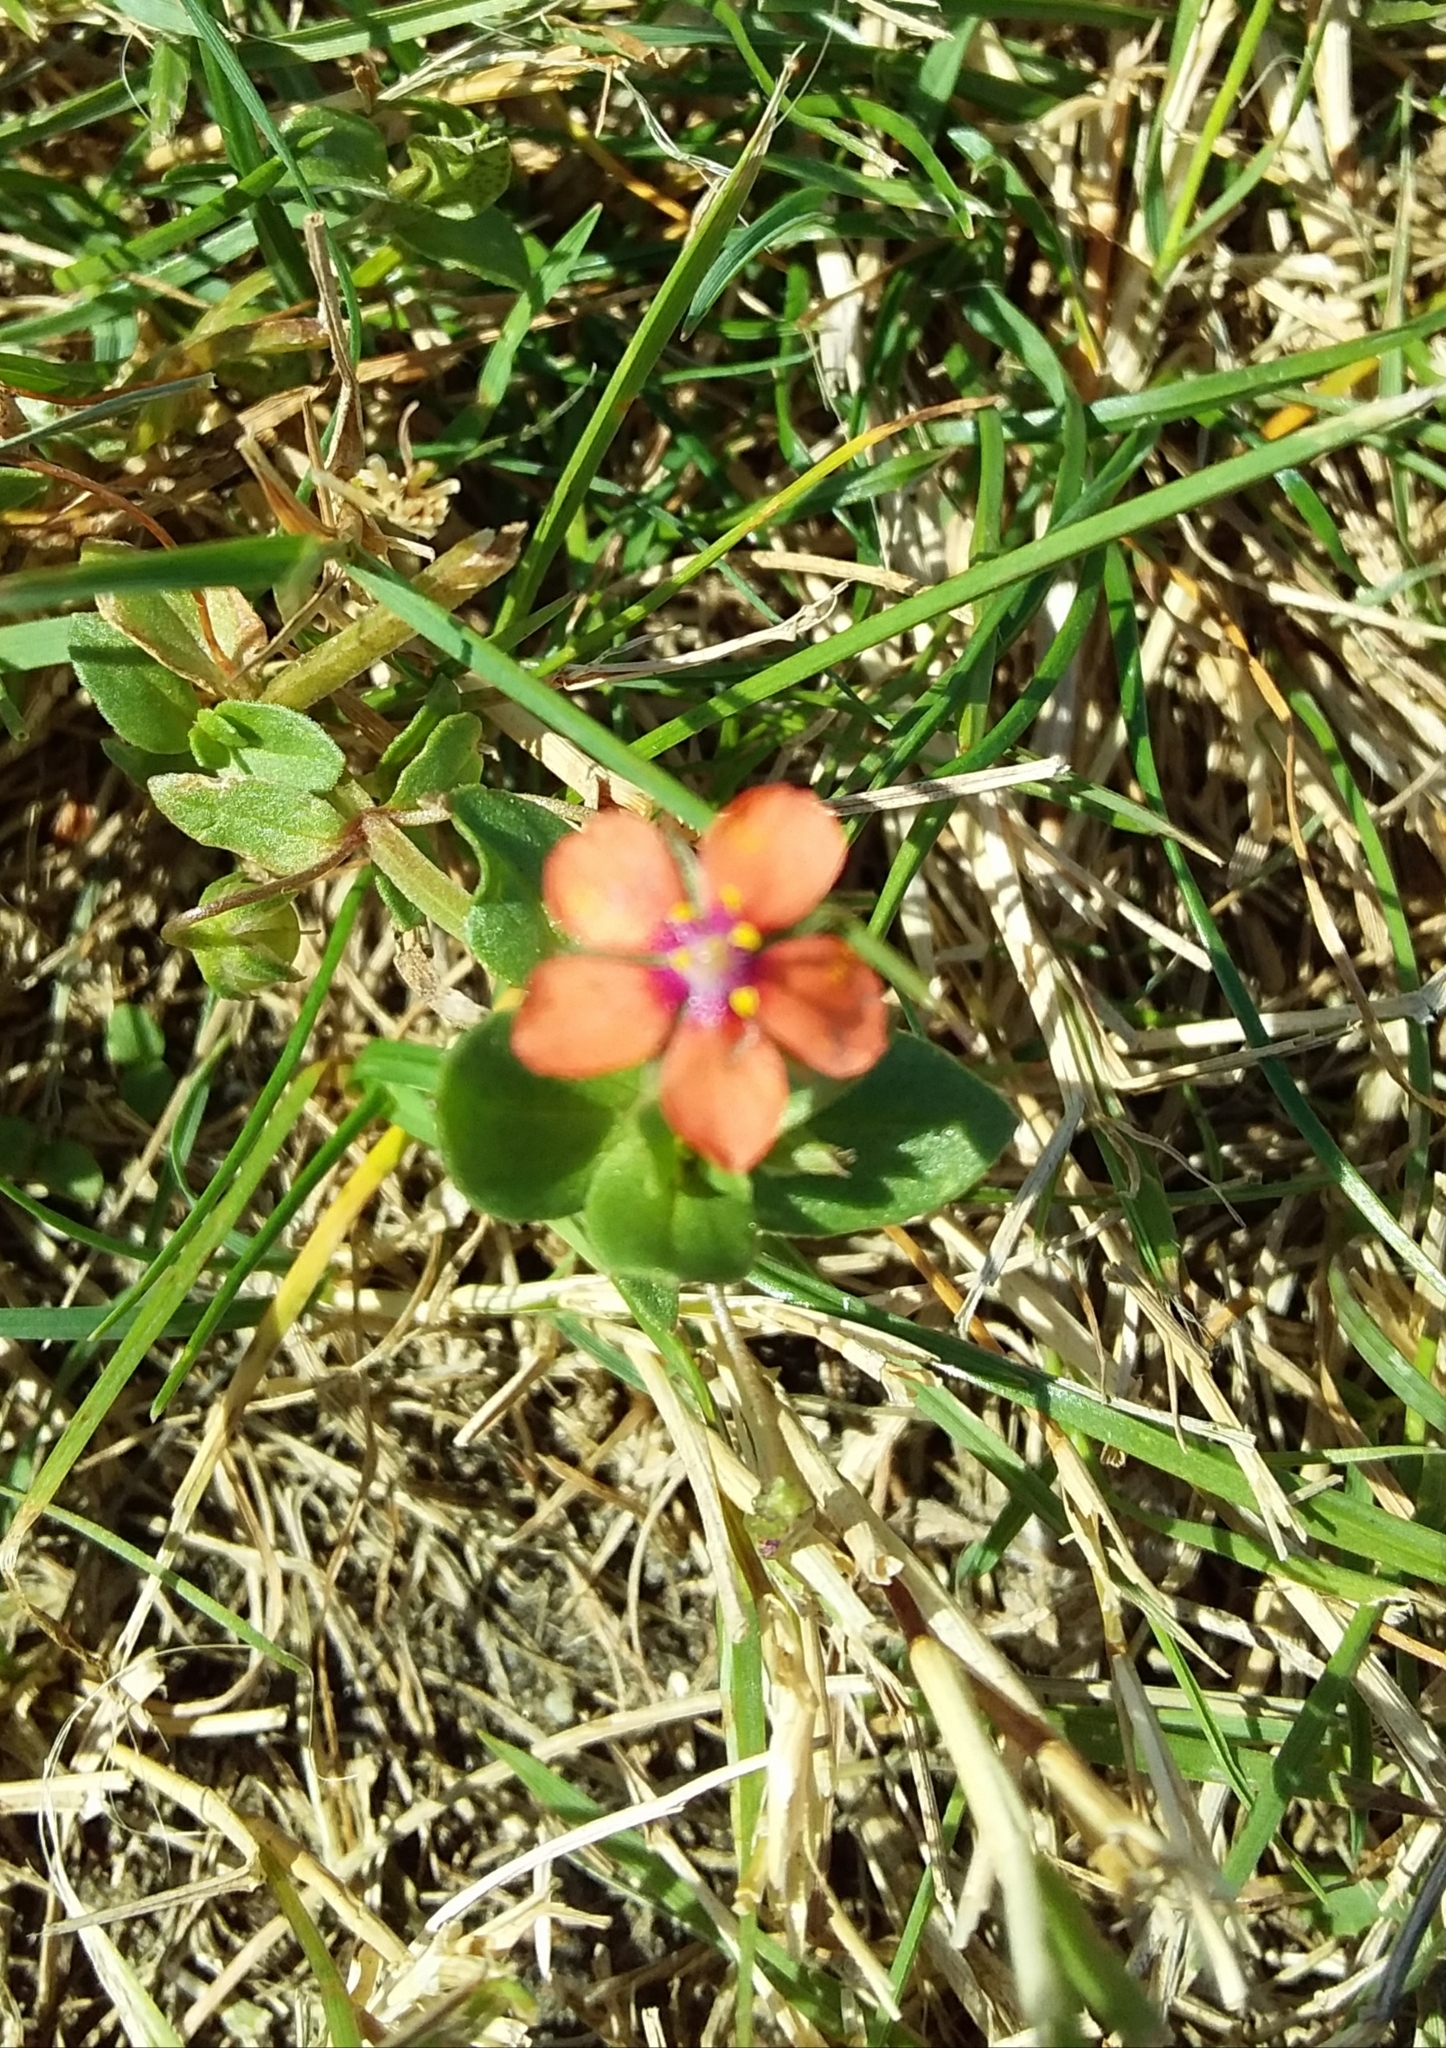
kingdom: Plantae
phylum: Tracheophyta
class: Magnoliopsida
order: Ericales
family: Primulaceae
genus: Lysimachia
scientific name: Lysimachia arvensis
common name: Scarlet pimpernel
